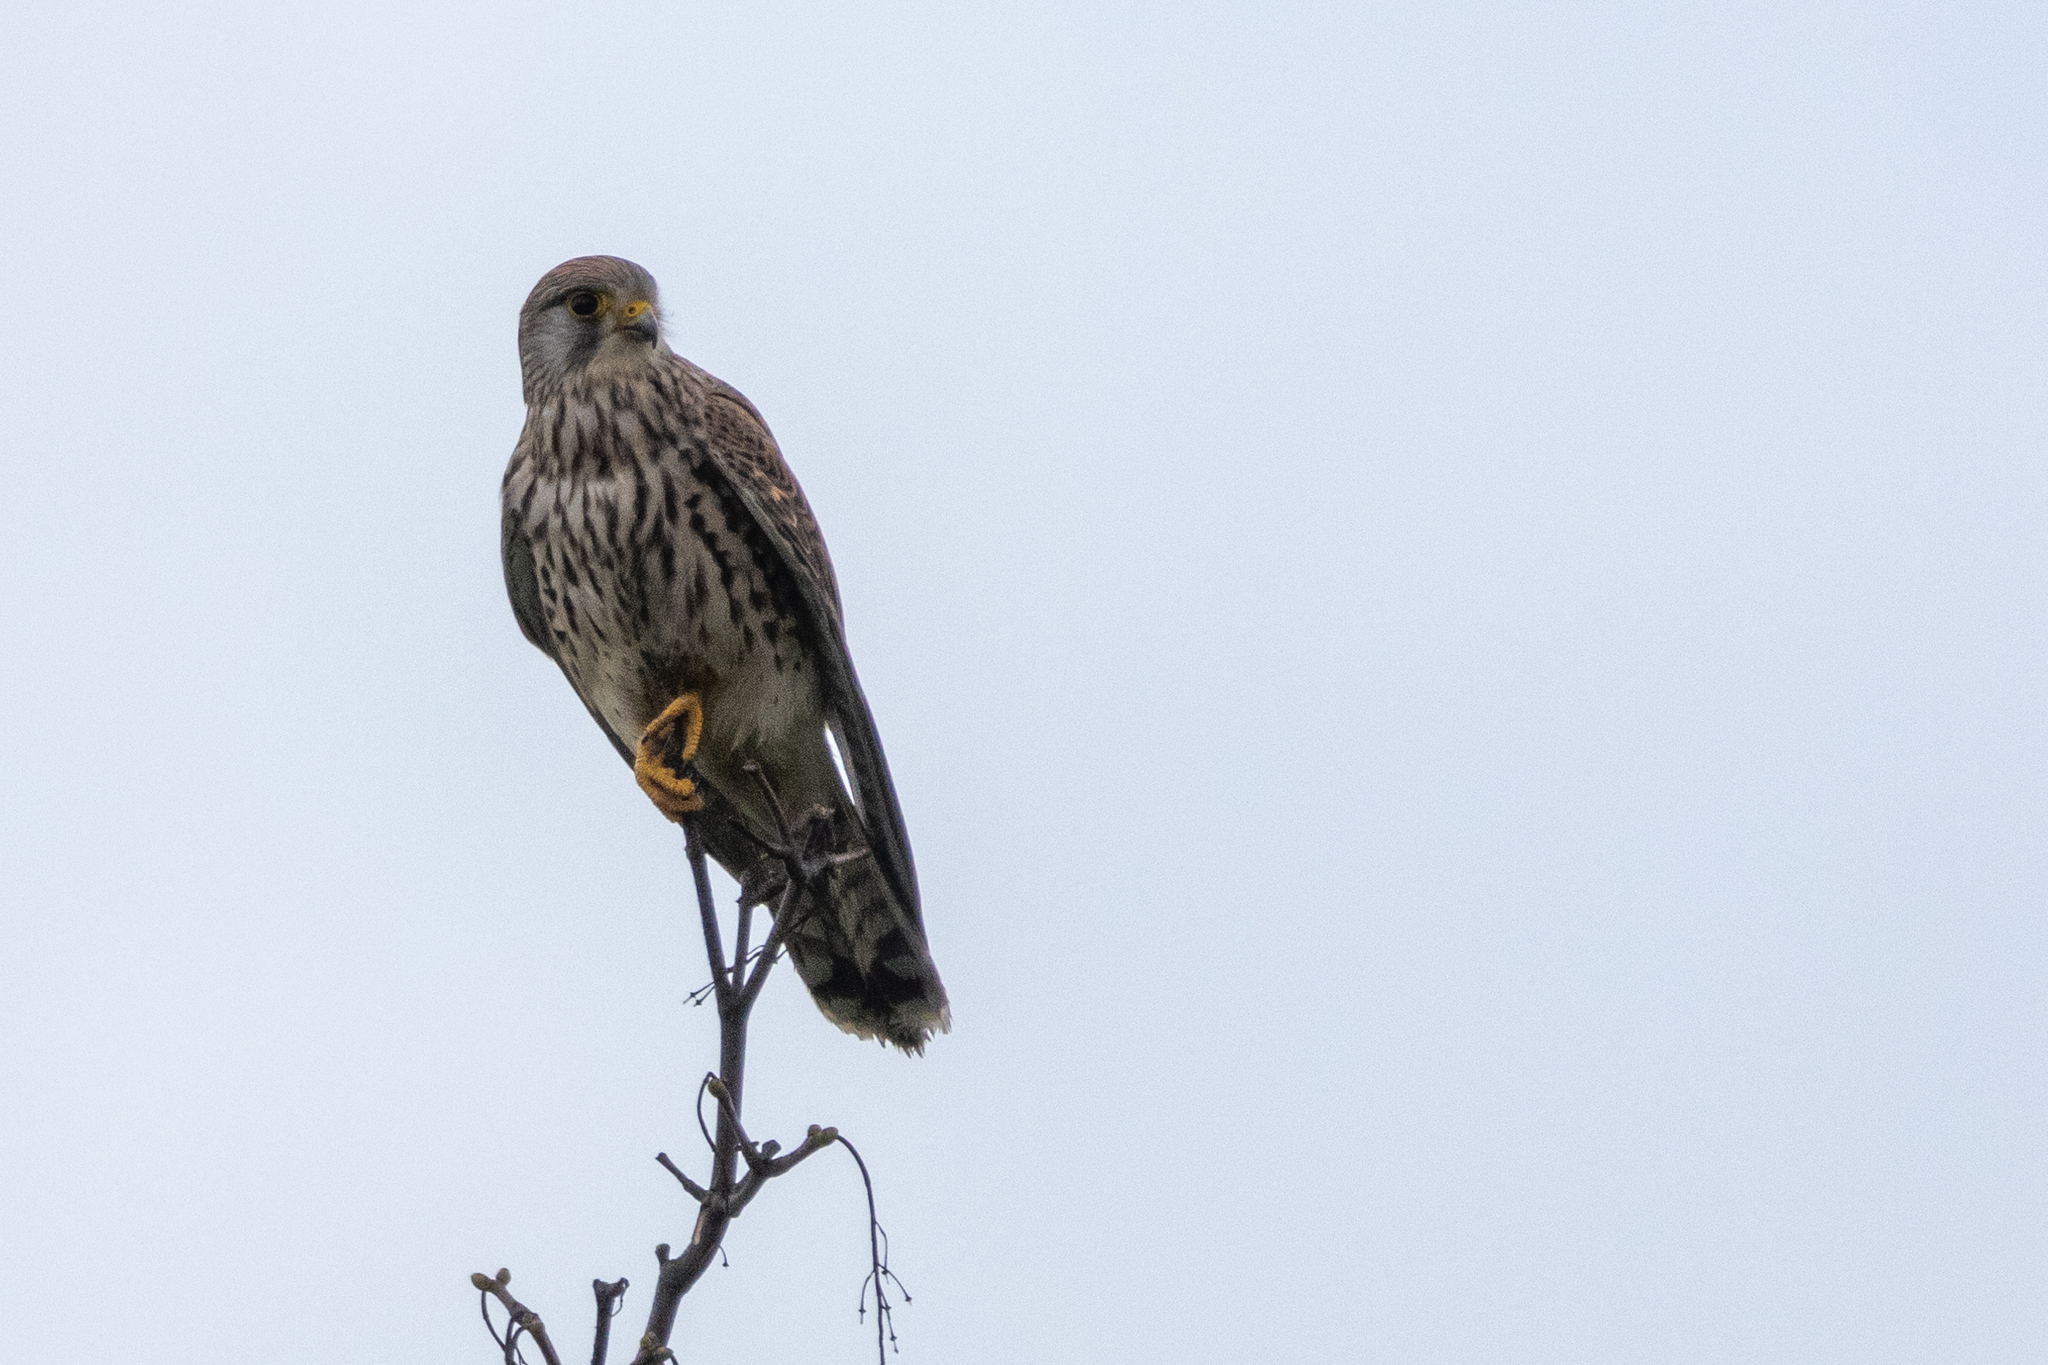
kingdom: Animalia
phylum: Chordata
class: Aves
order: Falconiformes
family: Falconidae
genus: Falco
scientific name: Falco tinnunculus
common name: Common kestrel
